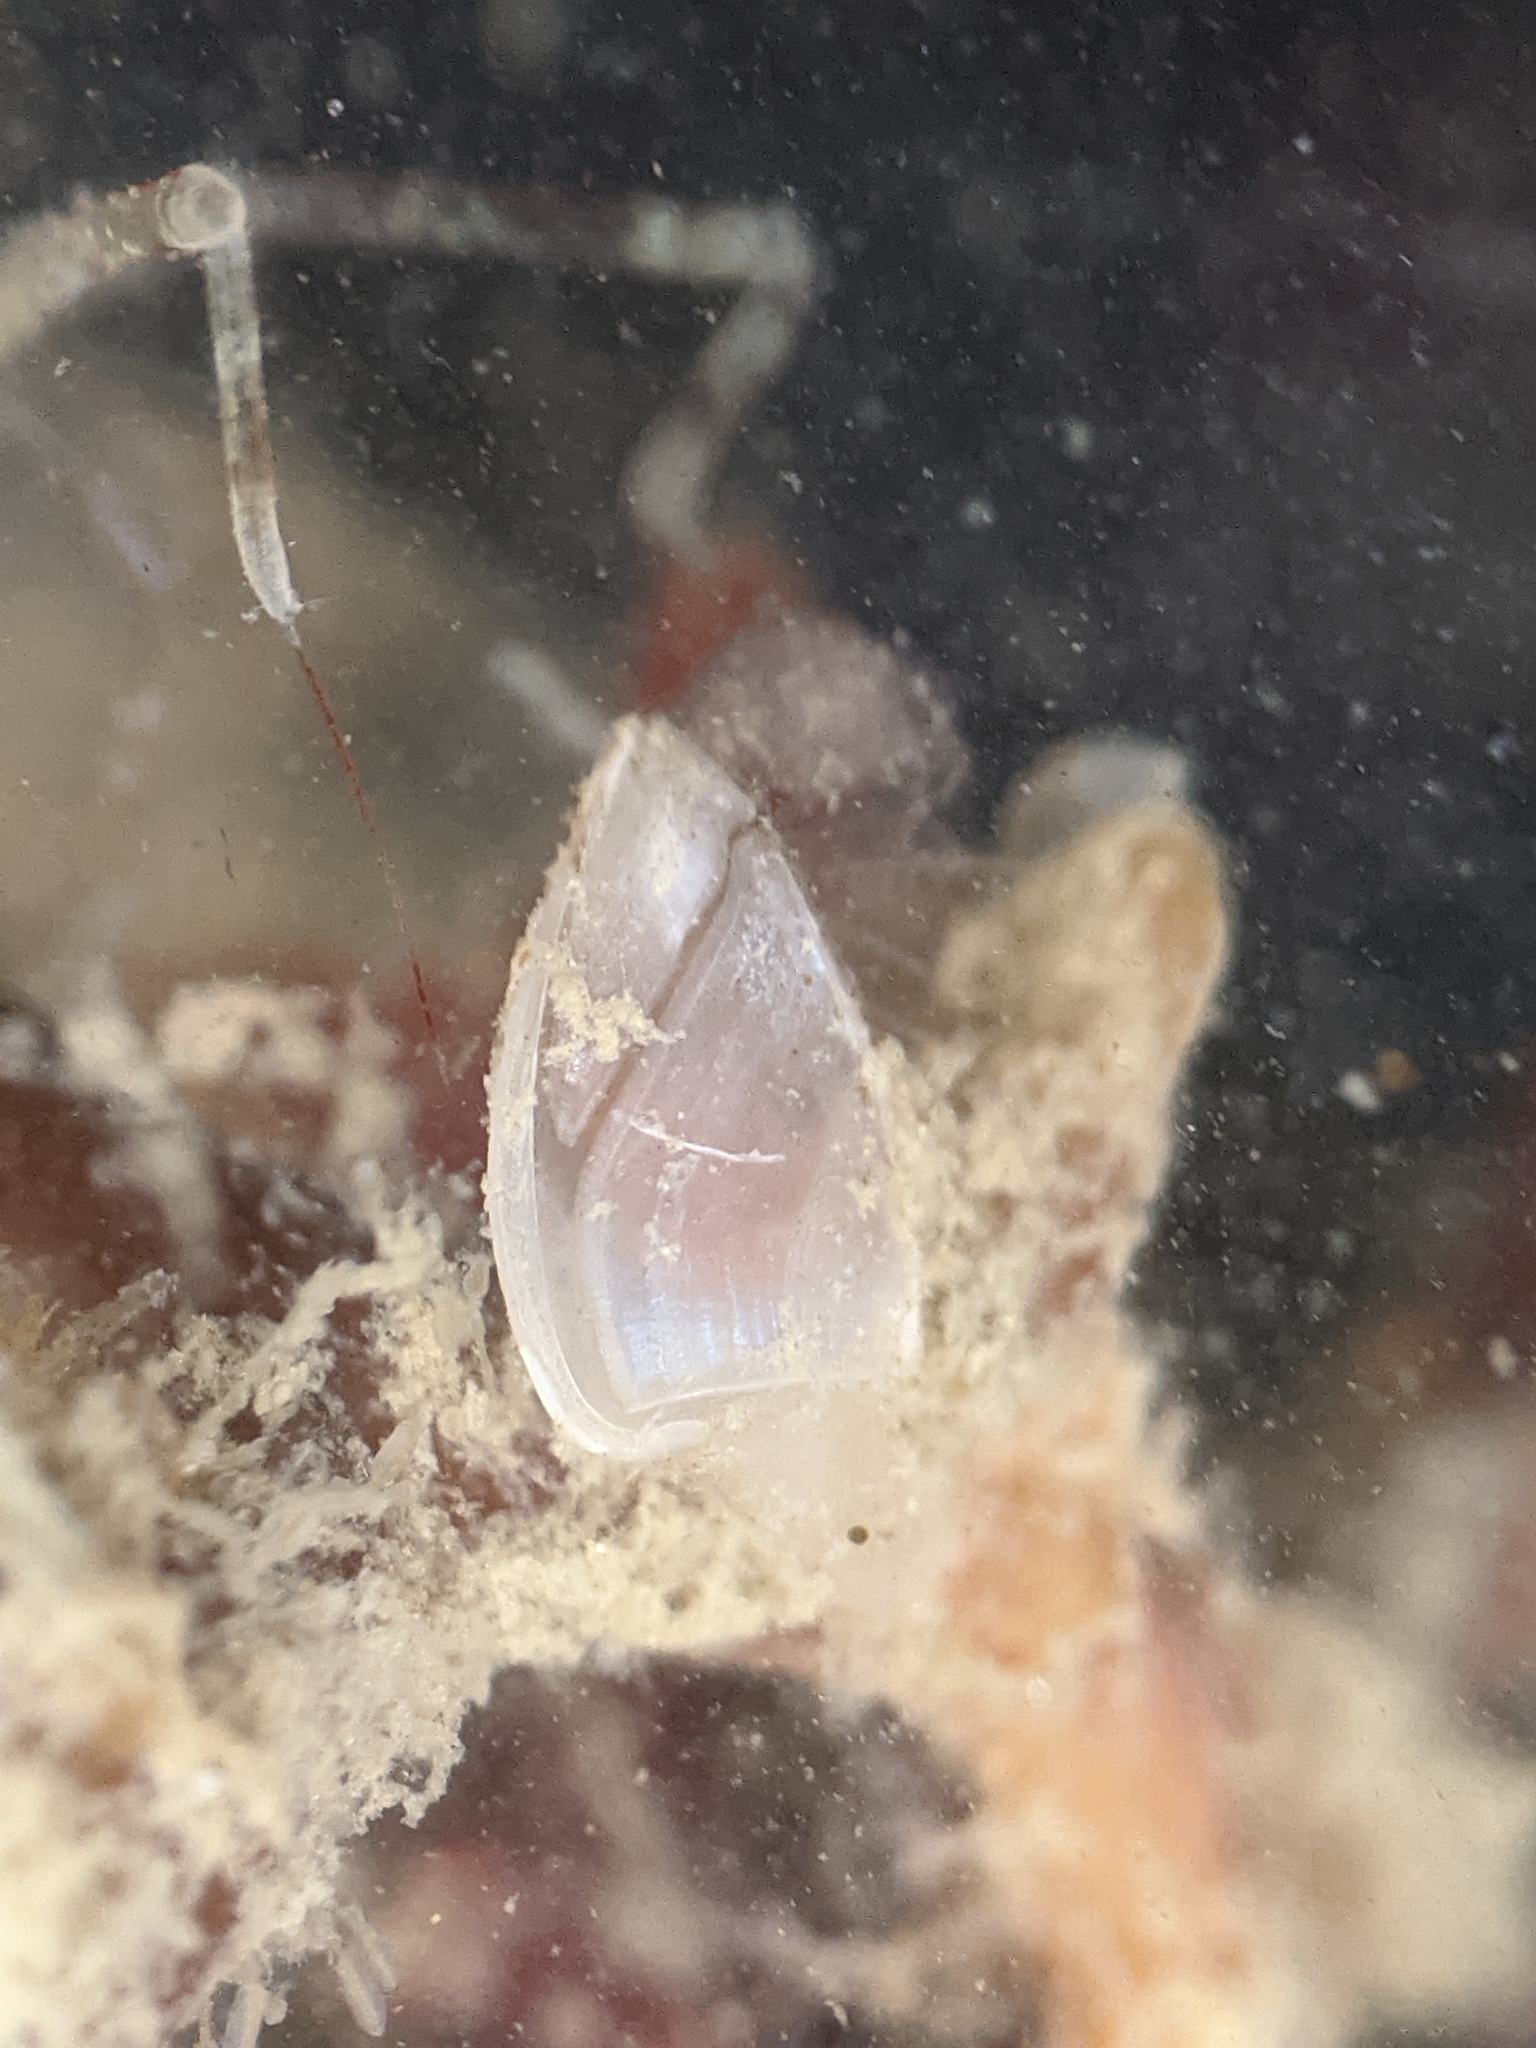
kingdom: Animalia
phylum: Arthropoda
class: Maxillopoda
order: Pedunculata
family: Lepadidae
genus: Lepas
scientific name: Lepas pacifica
